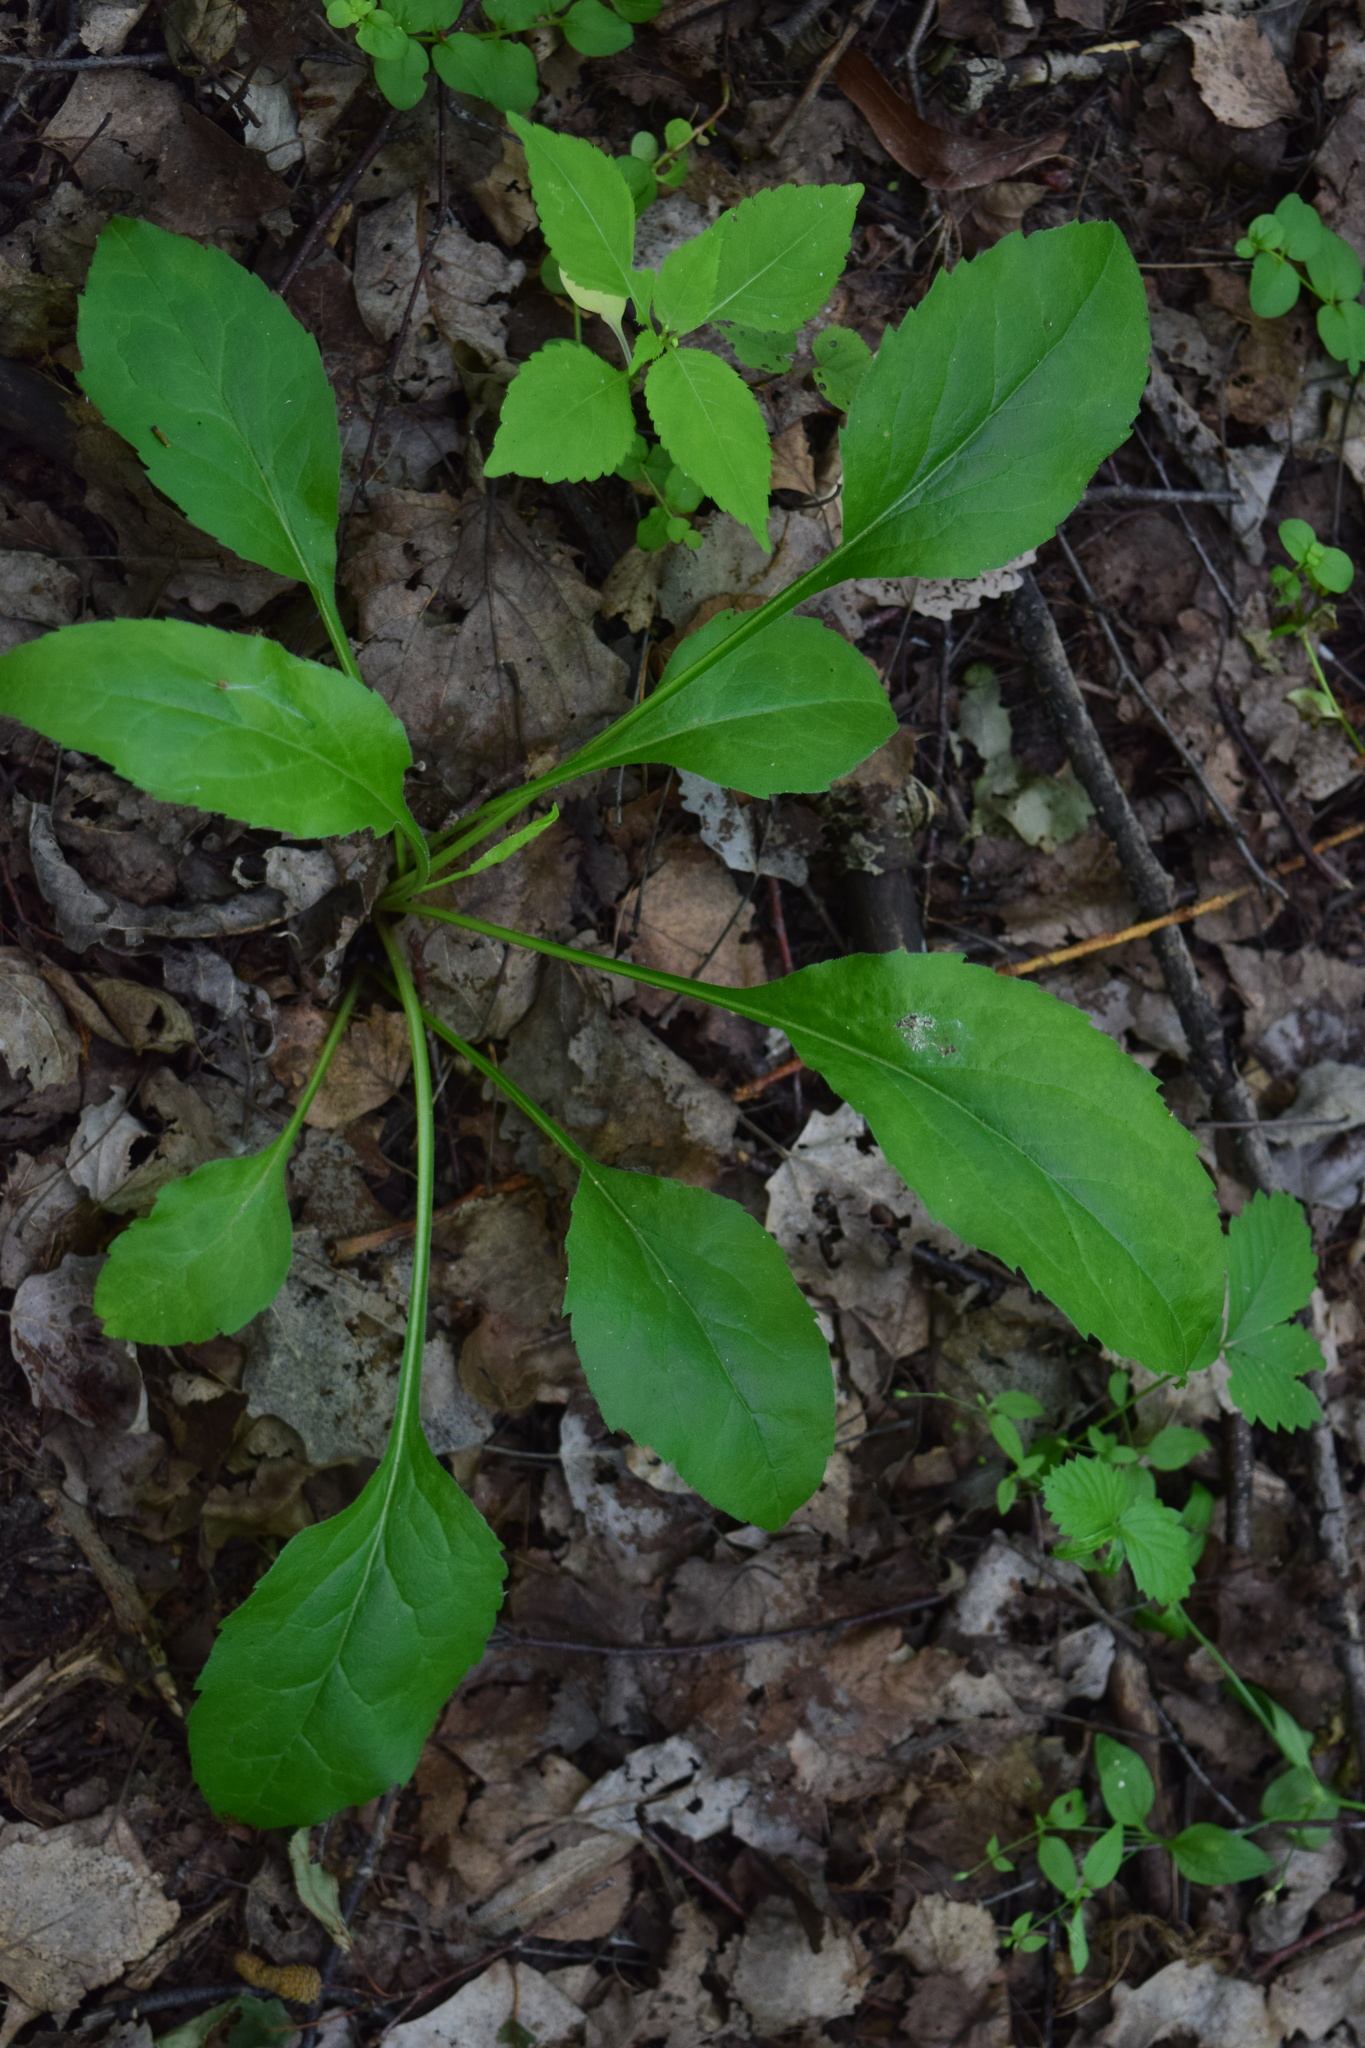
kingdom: Plantae
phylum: Tracheophyta
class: Magnoliopsida
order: Asterales
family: Asteraceae
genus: Solidago
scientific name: Solidago virgaurea
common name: Goldenrod
